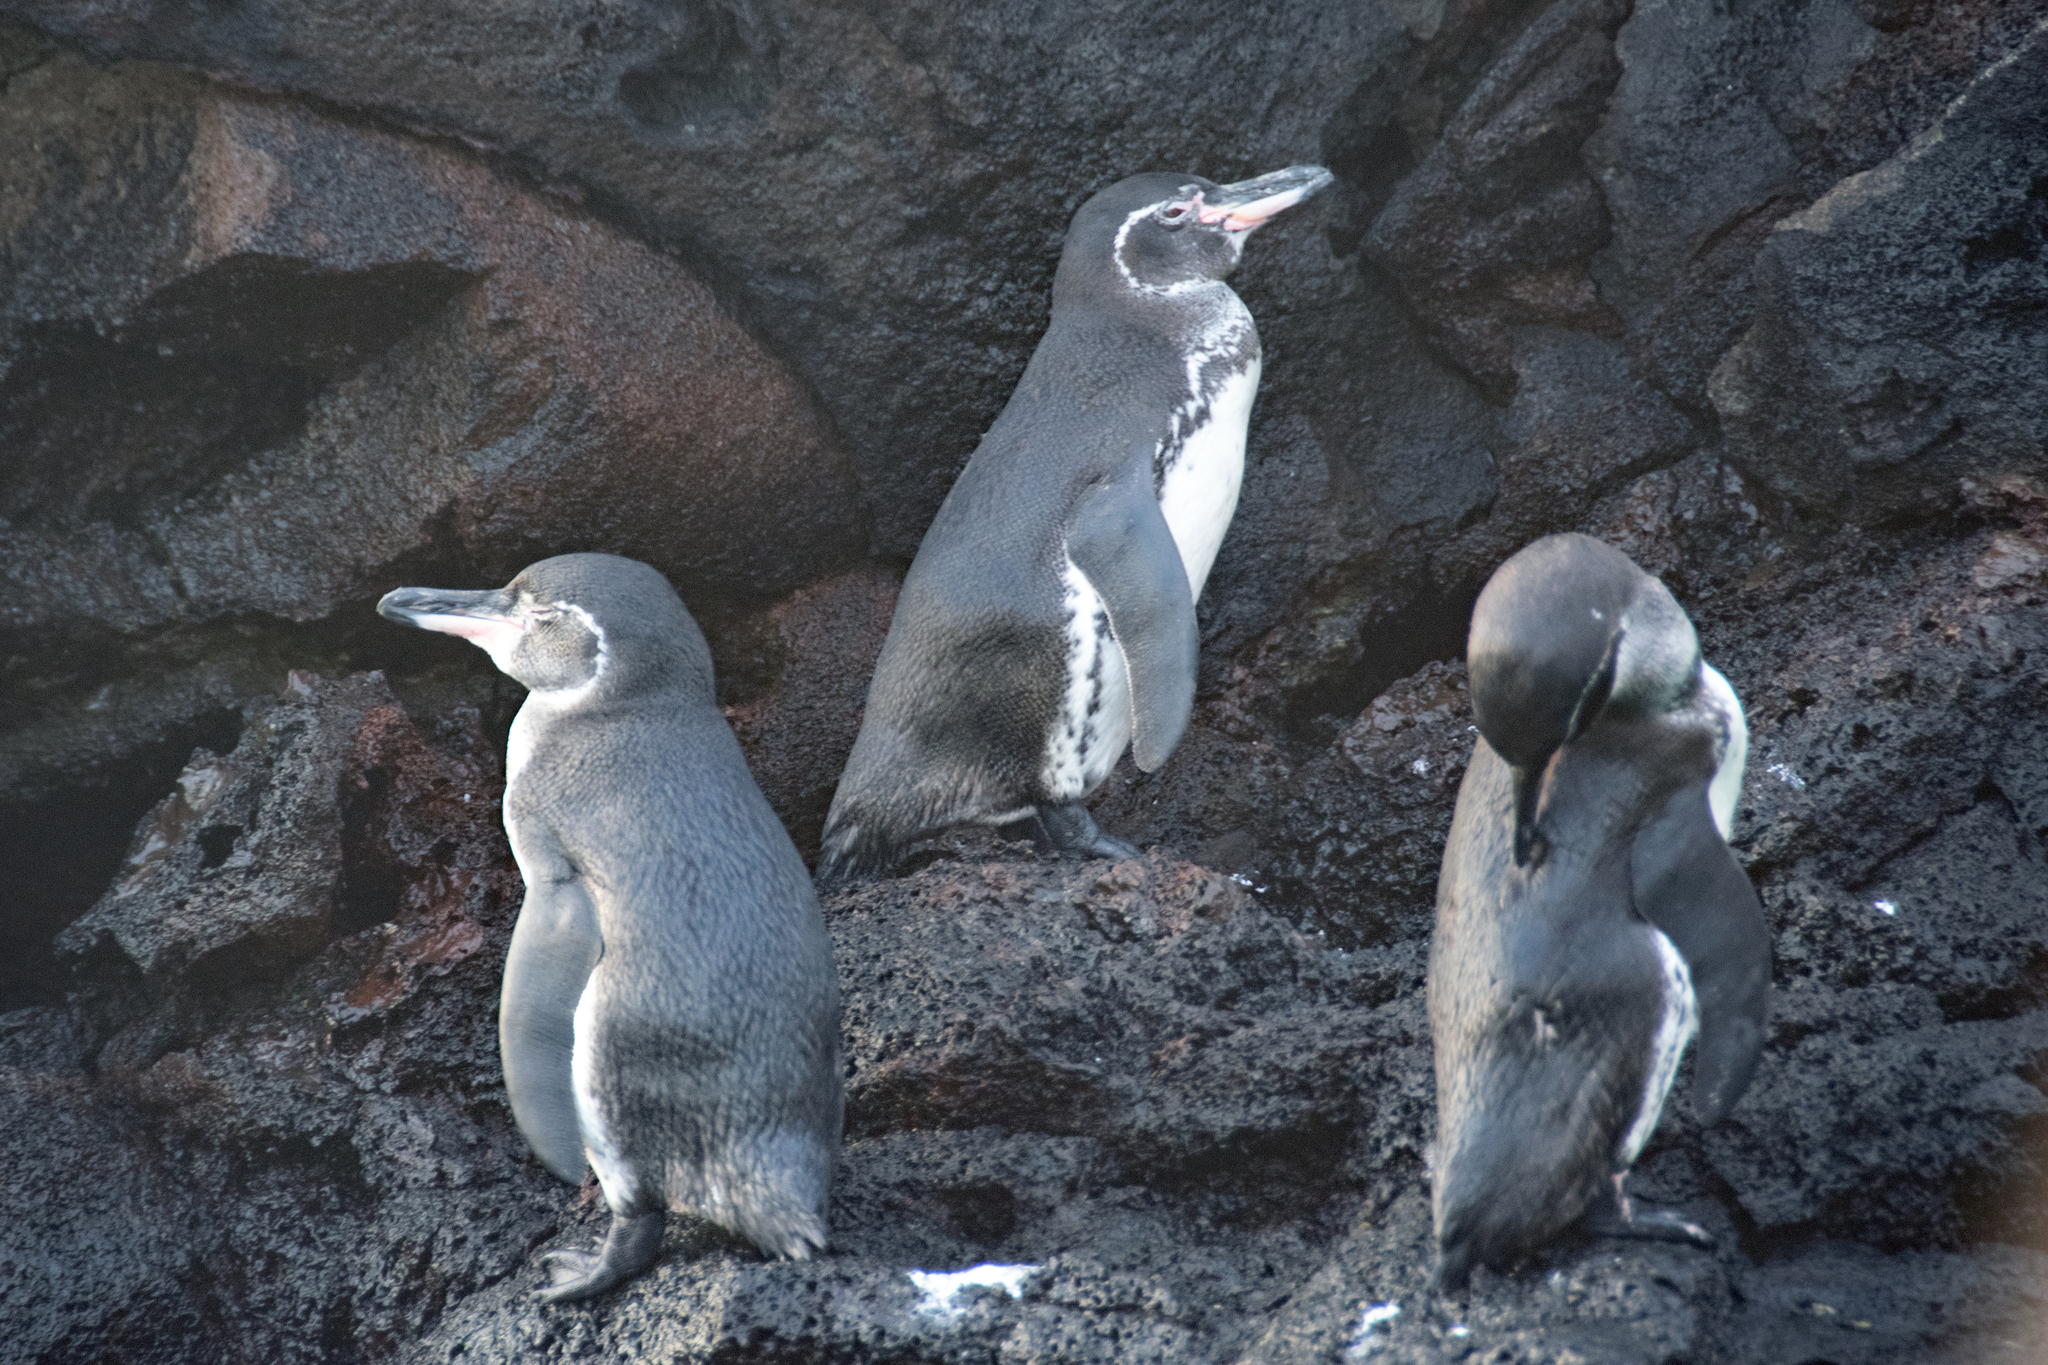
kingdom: Animalia
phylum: Chordata
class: Aves
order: Sphenisciformes
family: Spheniscidae
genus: Spheniscus
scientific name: Spheniscus mendiculus
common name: Galapagos penguin
